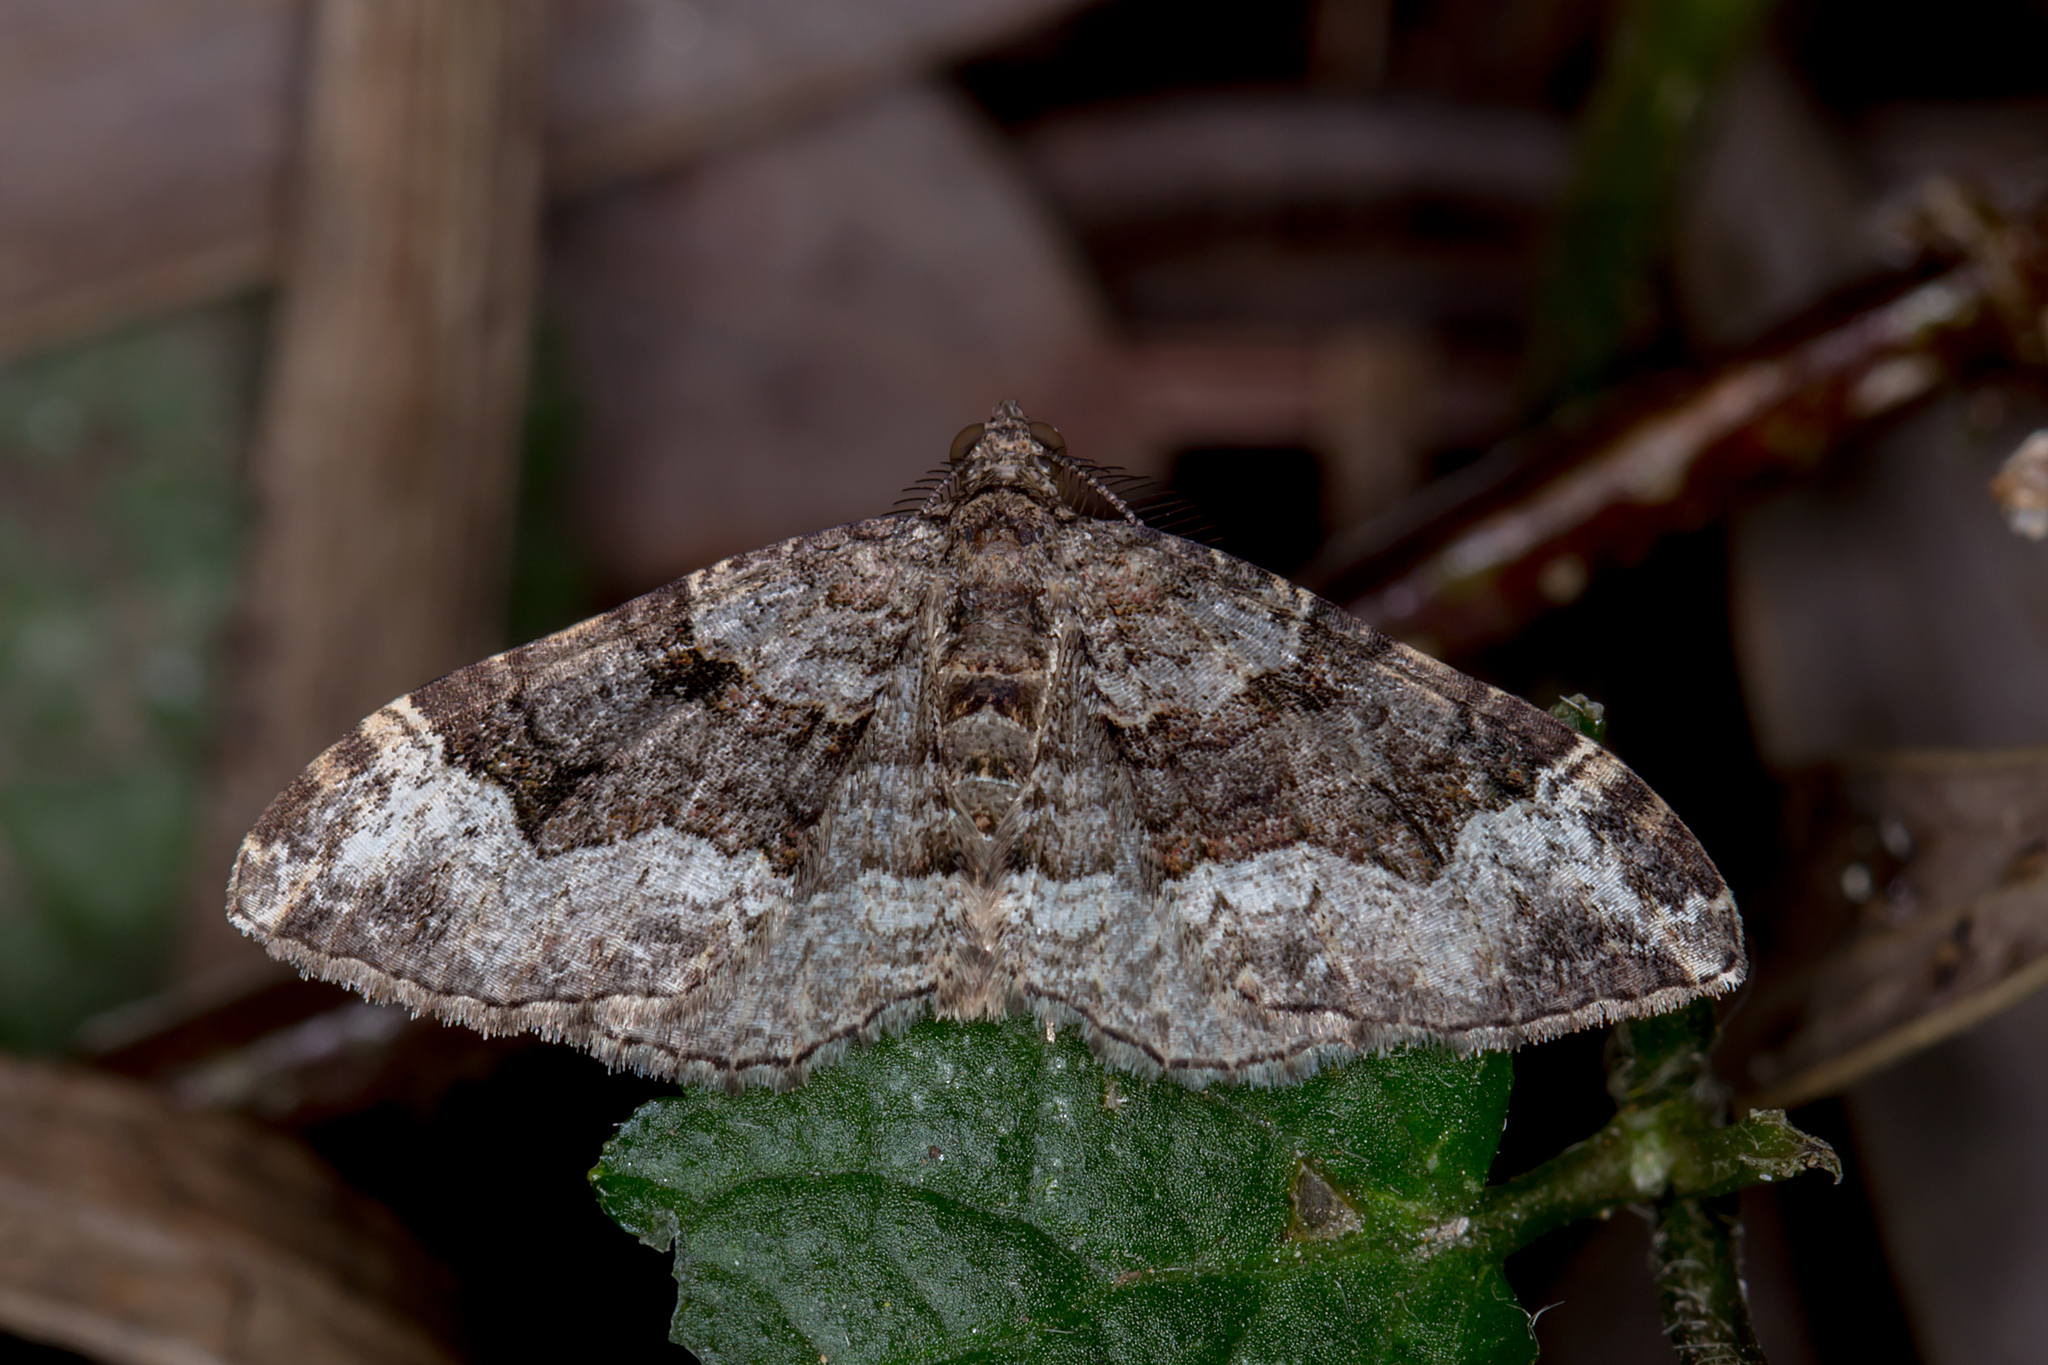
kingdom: Animalia
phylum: Arthropoda
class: Insecta
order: Lepidoptera
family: Geometridae
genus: Epyaxa
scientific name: Epyaxa subidaria
